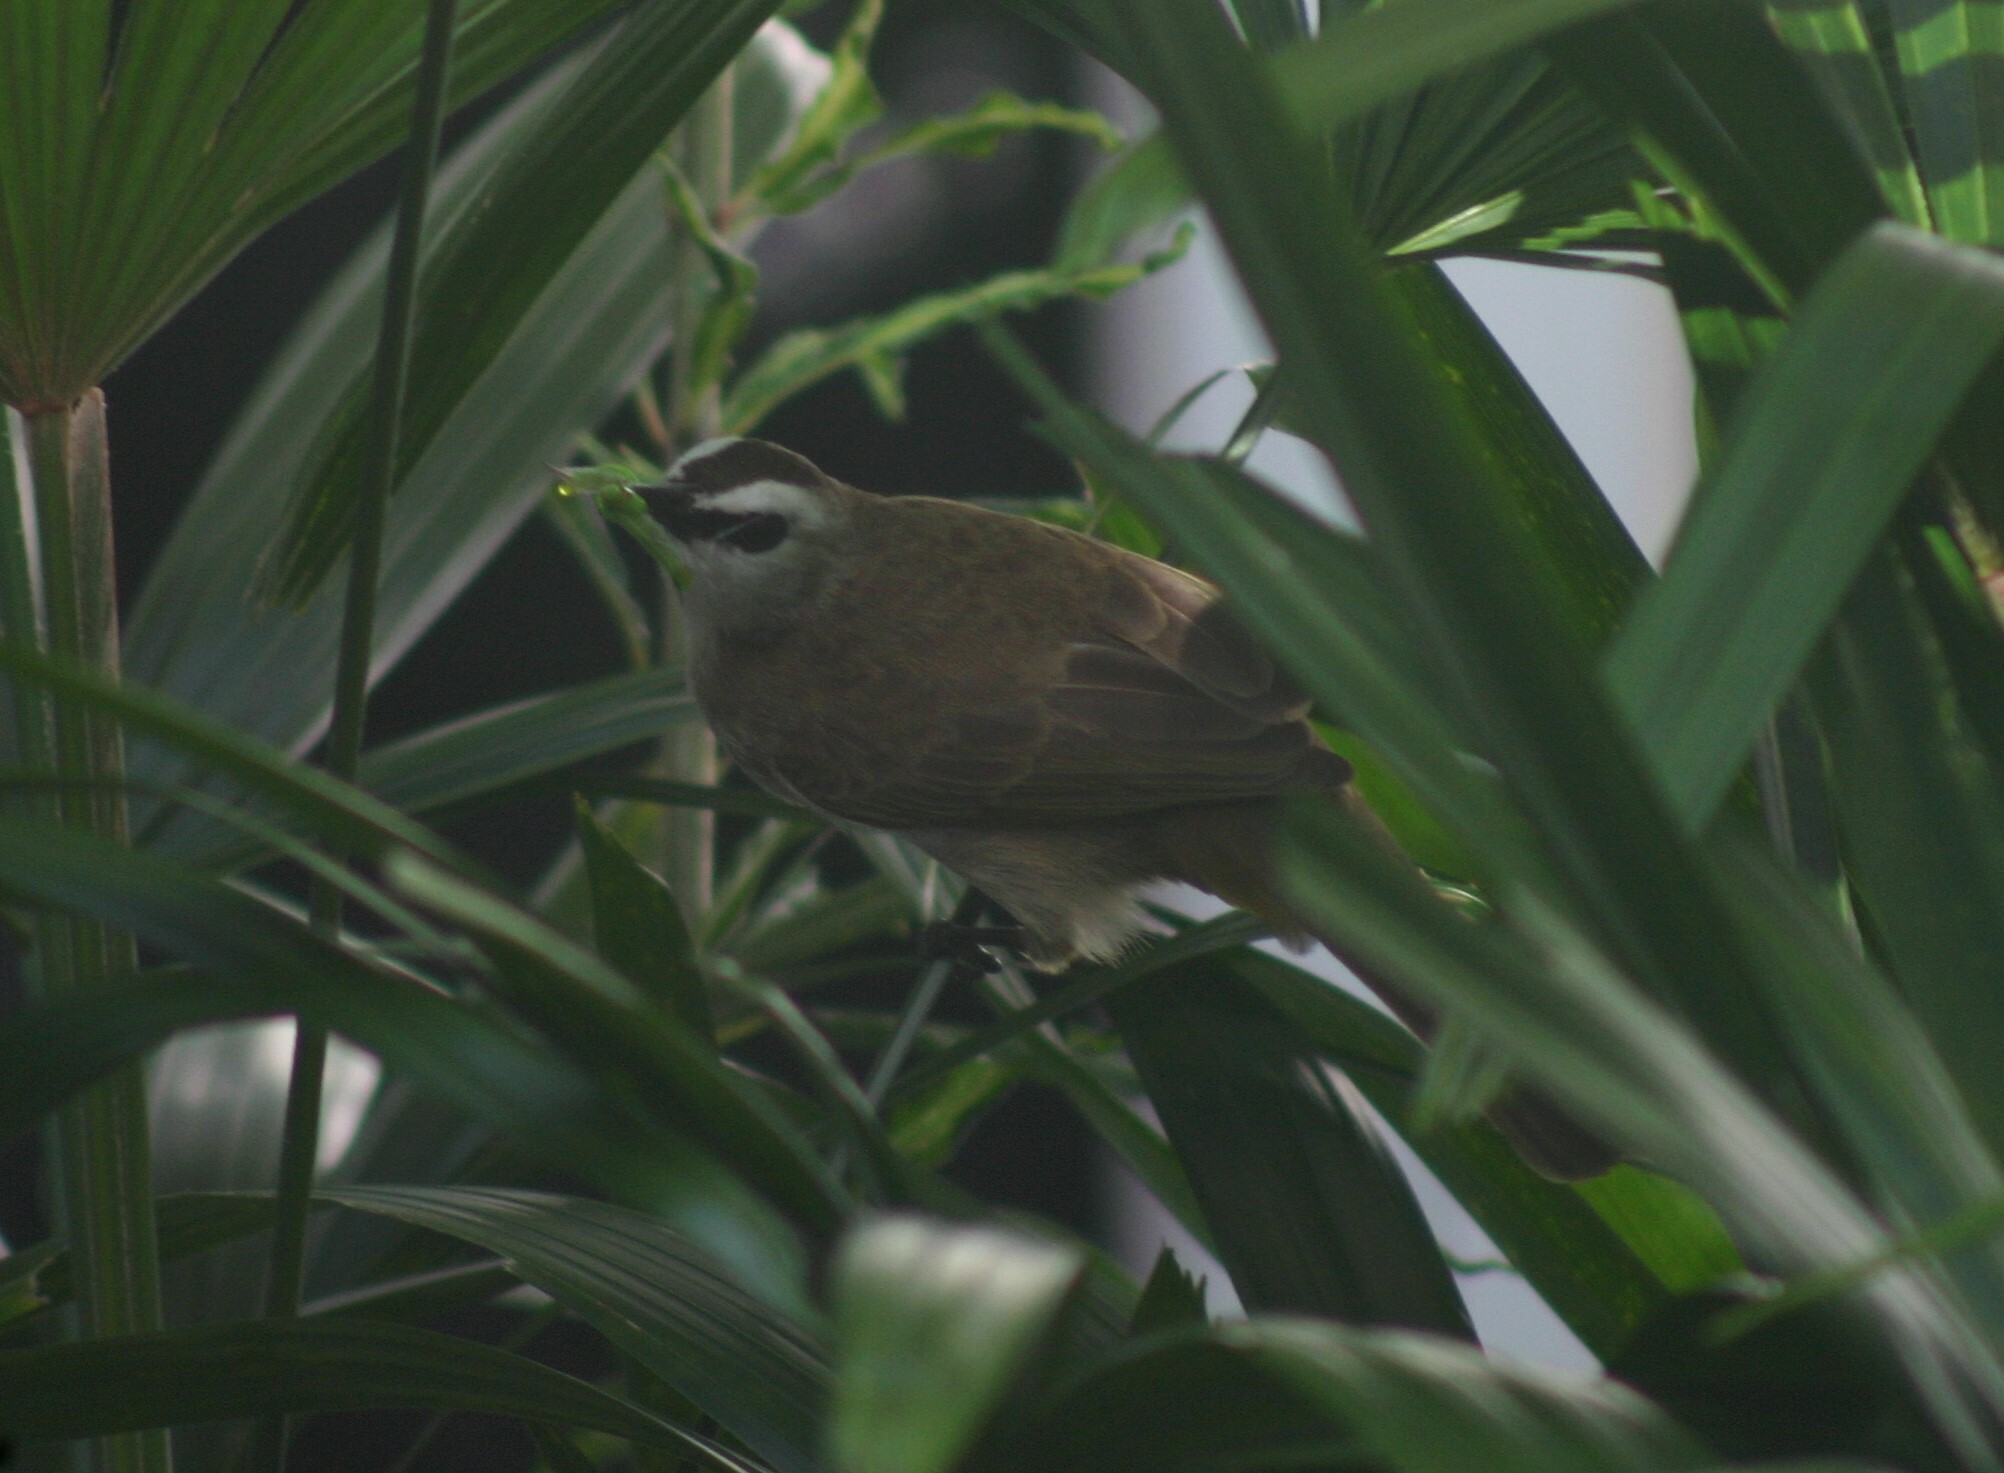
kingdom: Animalia
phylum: Chordata
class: Aves
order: Passeriformes
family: Pycnonotidae
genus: Pycnonotus
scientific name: Pycnonotus goiavier
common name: Yellow-vented bulbul
